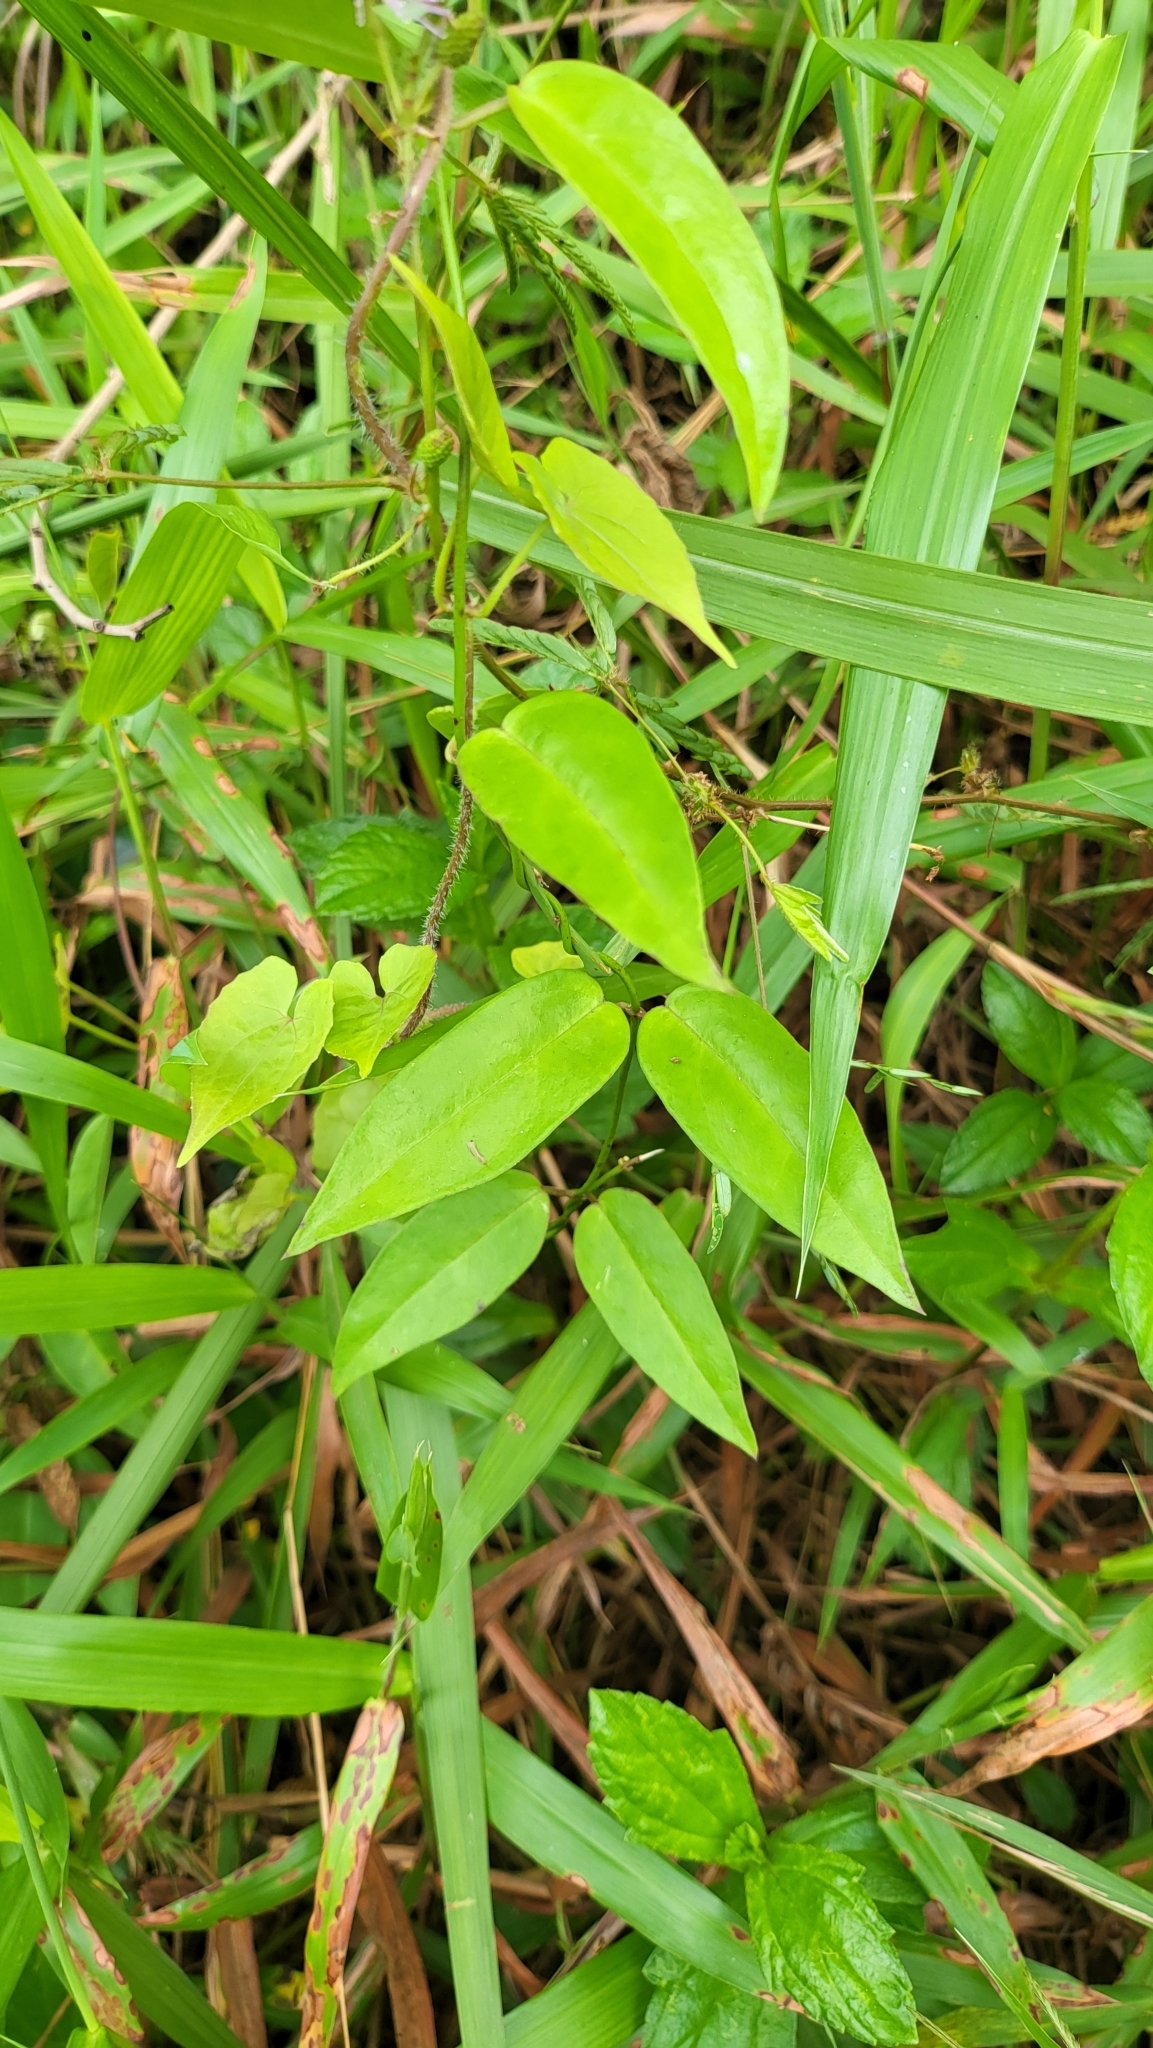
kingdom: Plantae
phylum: Tracheophyta
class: Magnoliopsida
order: Gentianales
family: Apocynaceae
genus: Vincetoxicum
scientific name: Vincetoxicum flexuosum
